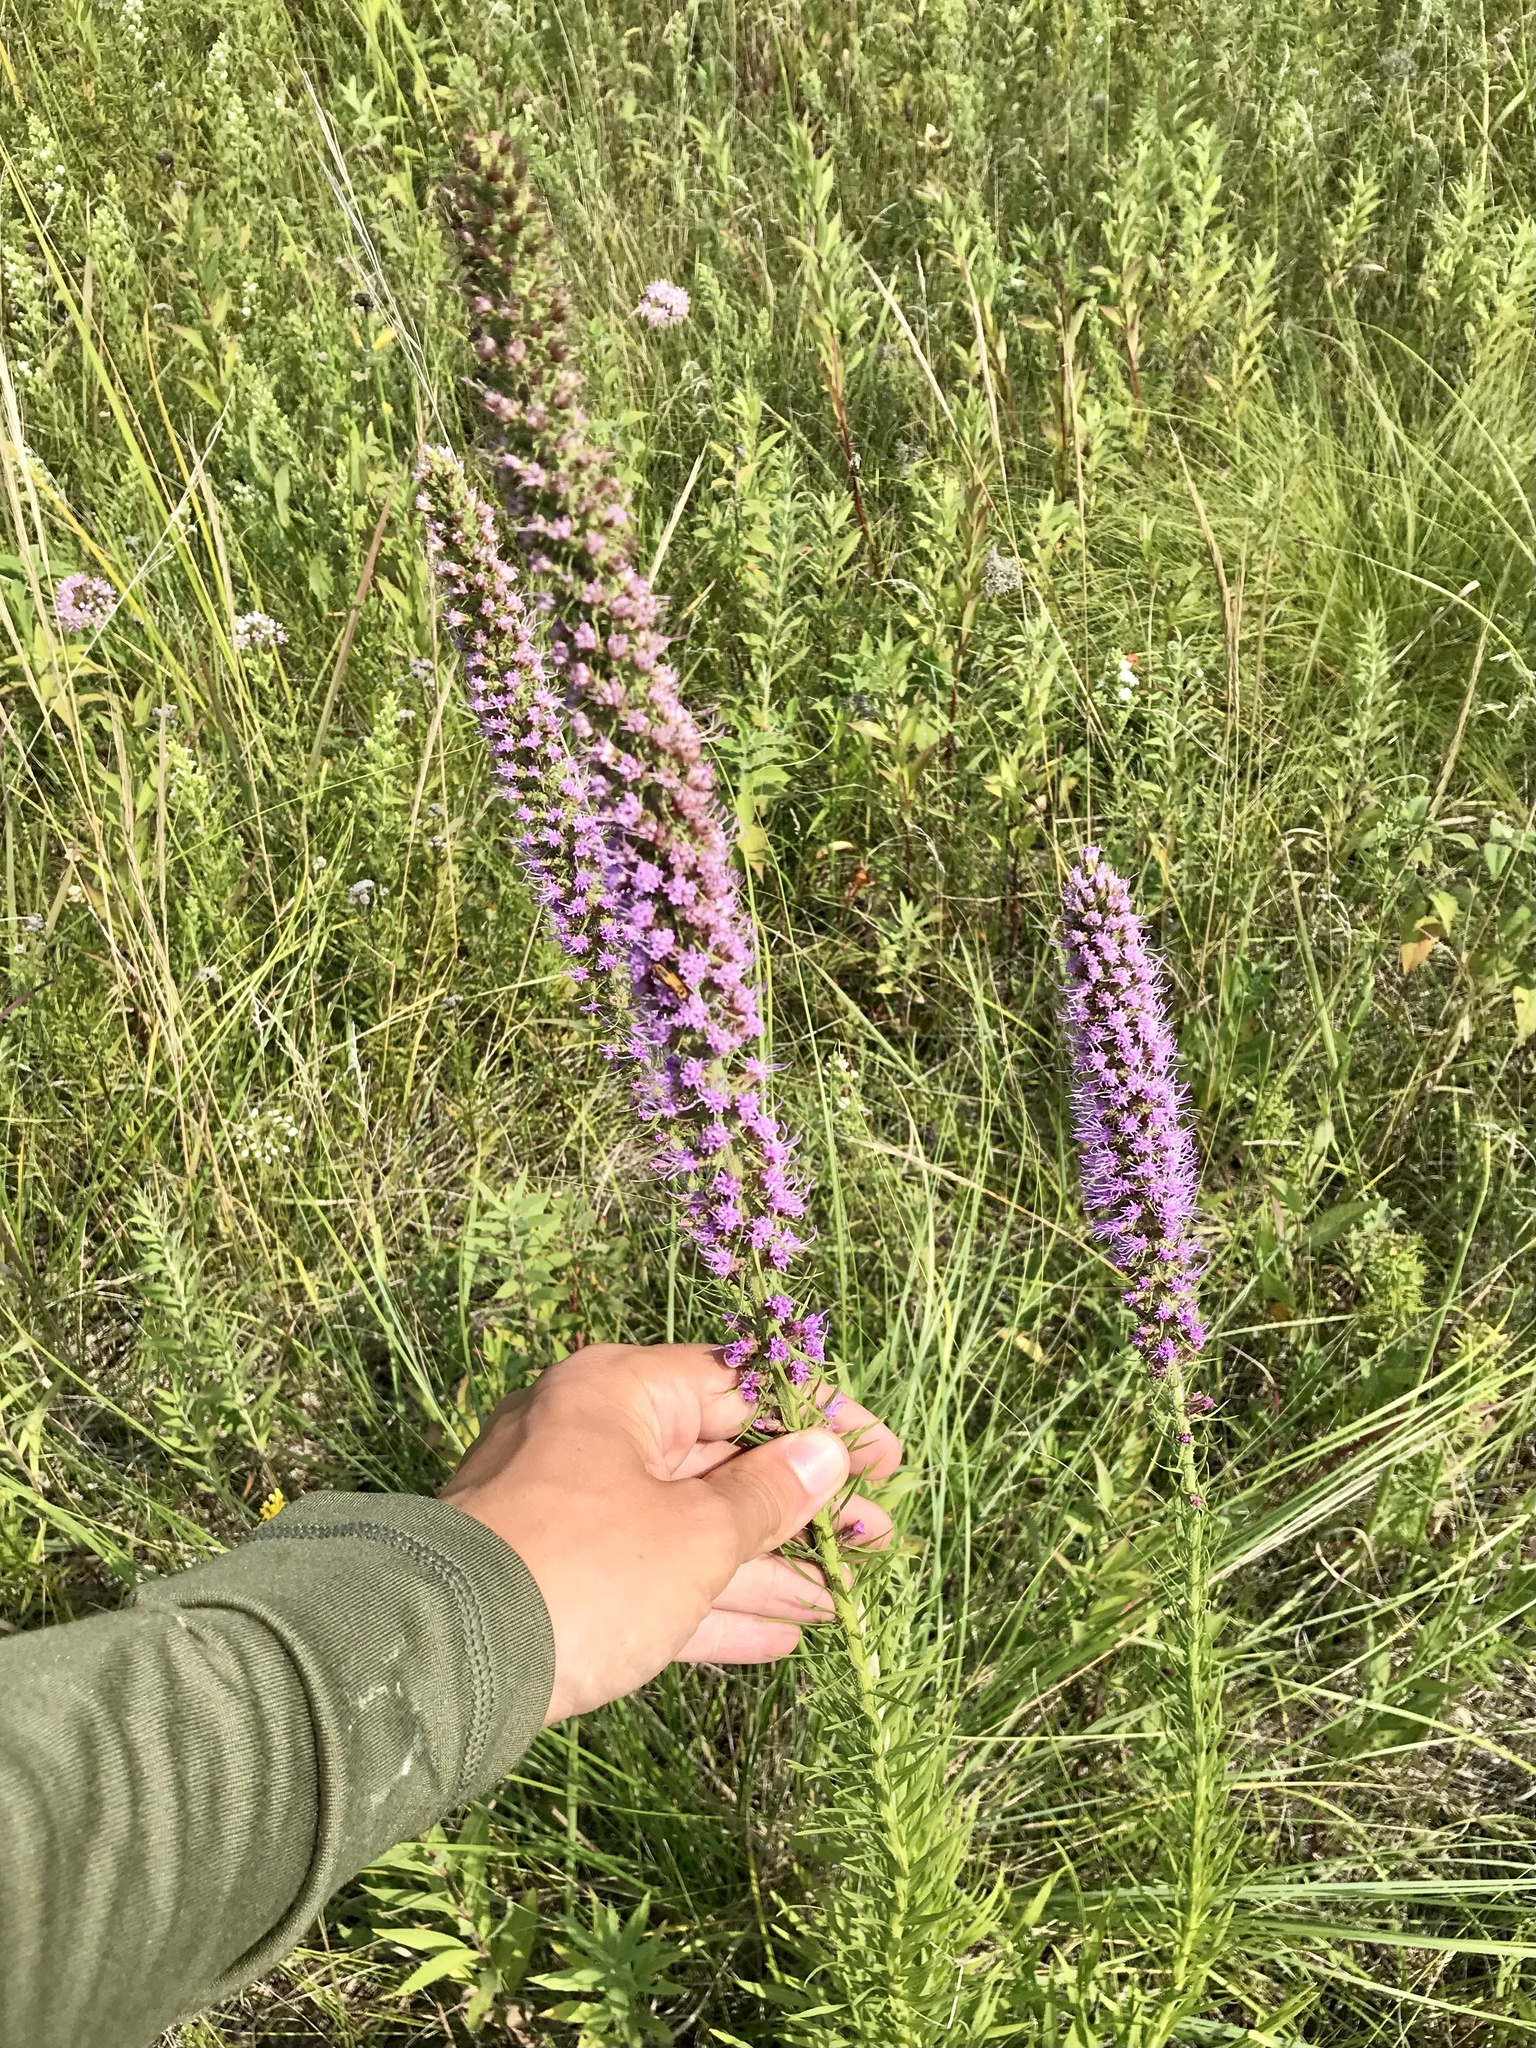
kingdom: Plantae
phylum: Tracheophyta
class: Magnoliopsida
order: Asterales
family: Asteraceae
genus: Liatris
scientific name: Liatris pycnostachya
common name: Cattail gayfeather
